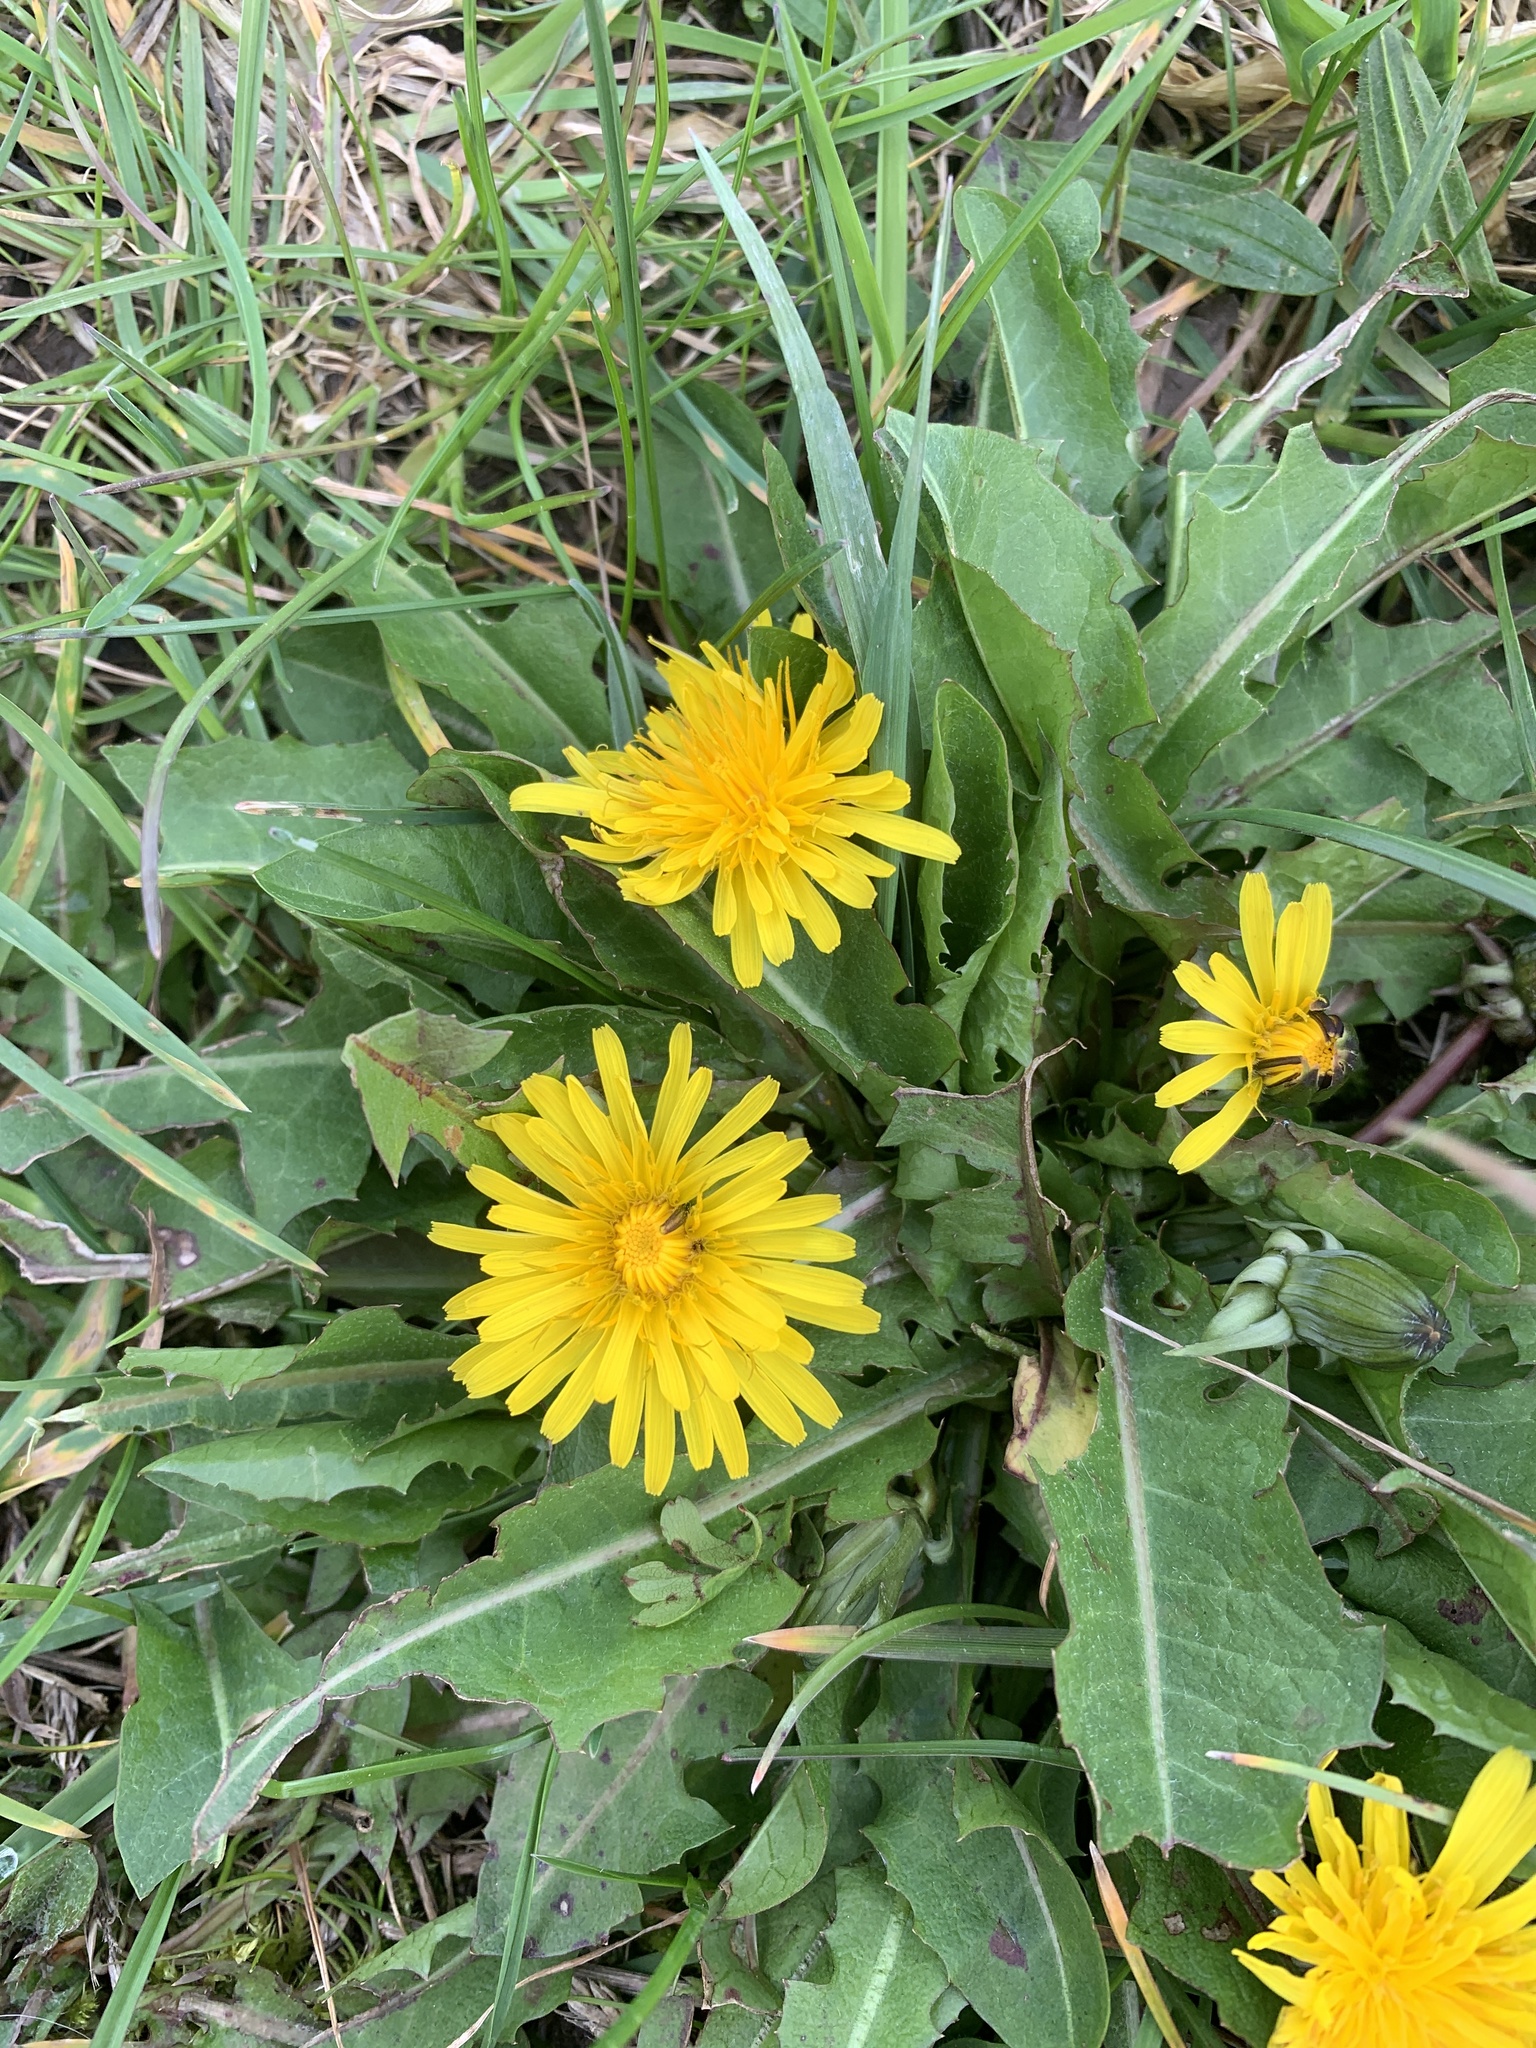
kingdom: Plantae
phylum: Tracheophyta
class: Magnoliopsida
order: Asterales
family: Asteraceae
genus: Taraxacum
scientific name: Taraxacum officinale
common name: Common dandelion
